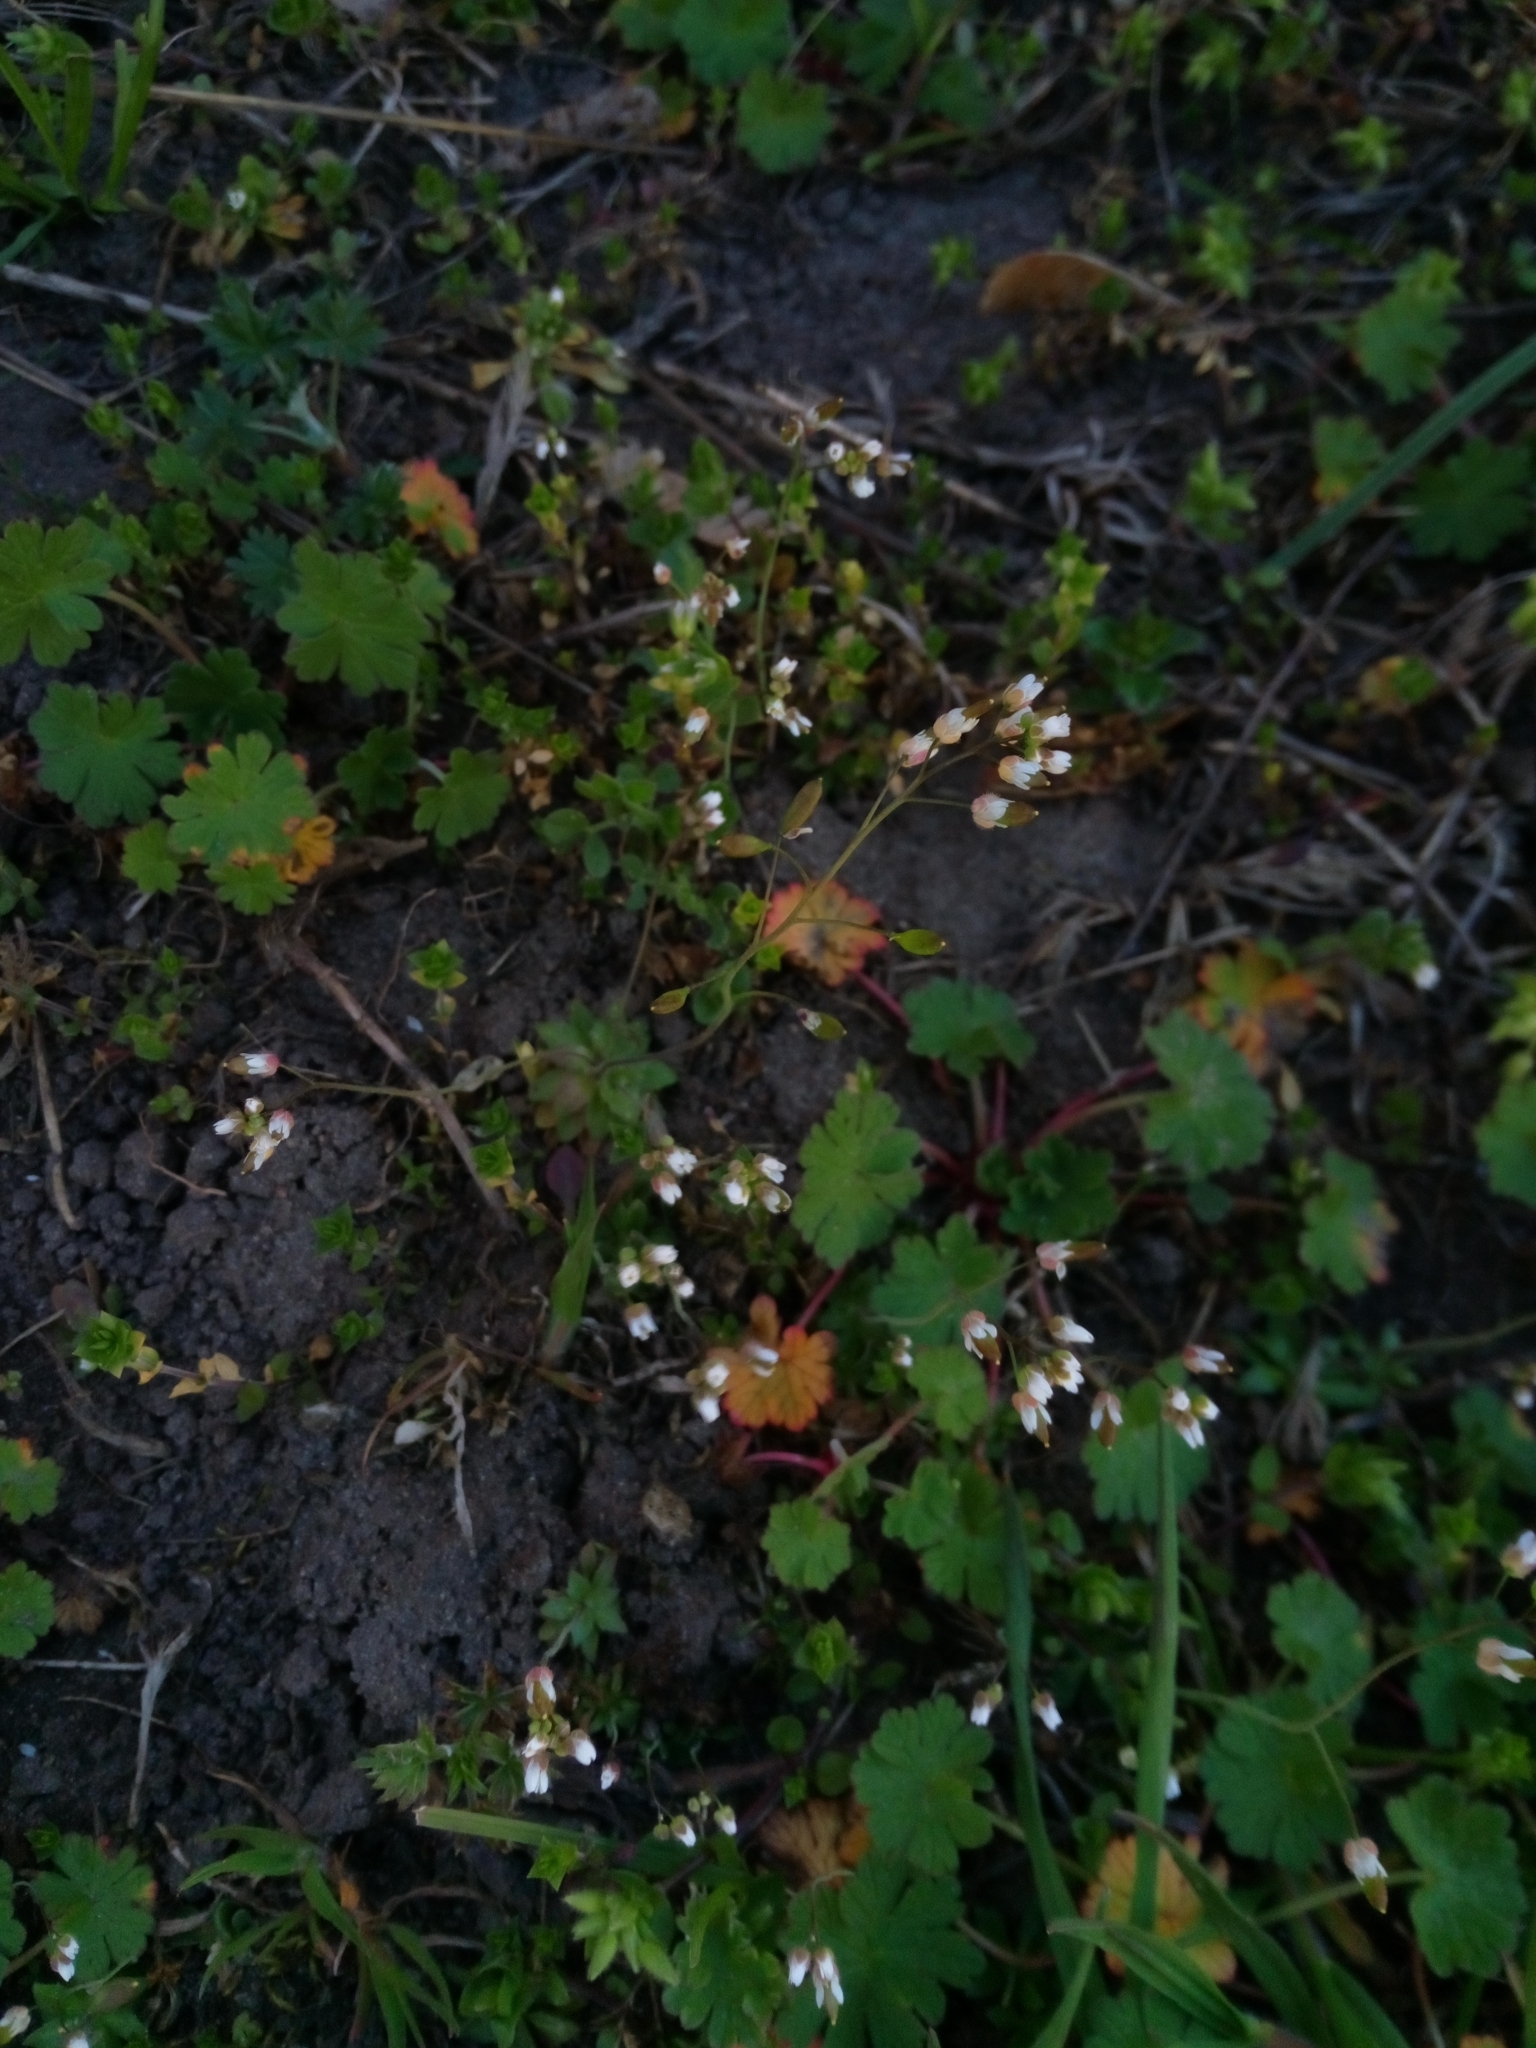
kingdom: Plantae
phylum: Tracheophyta
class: Magnoliopsida
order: Brassicales
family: Brassicaceae
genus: Draba
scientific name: Draba verna
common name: Spring draba
